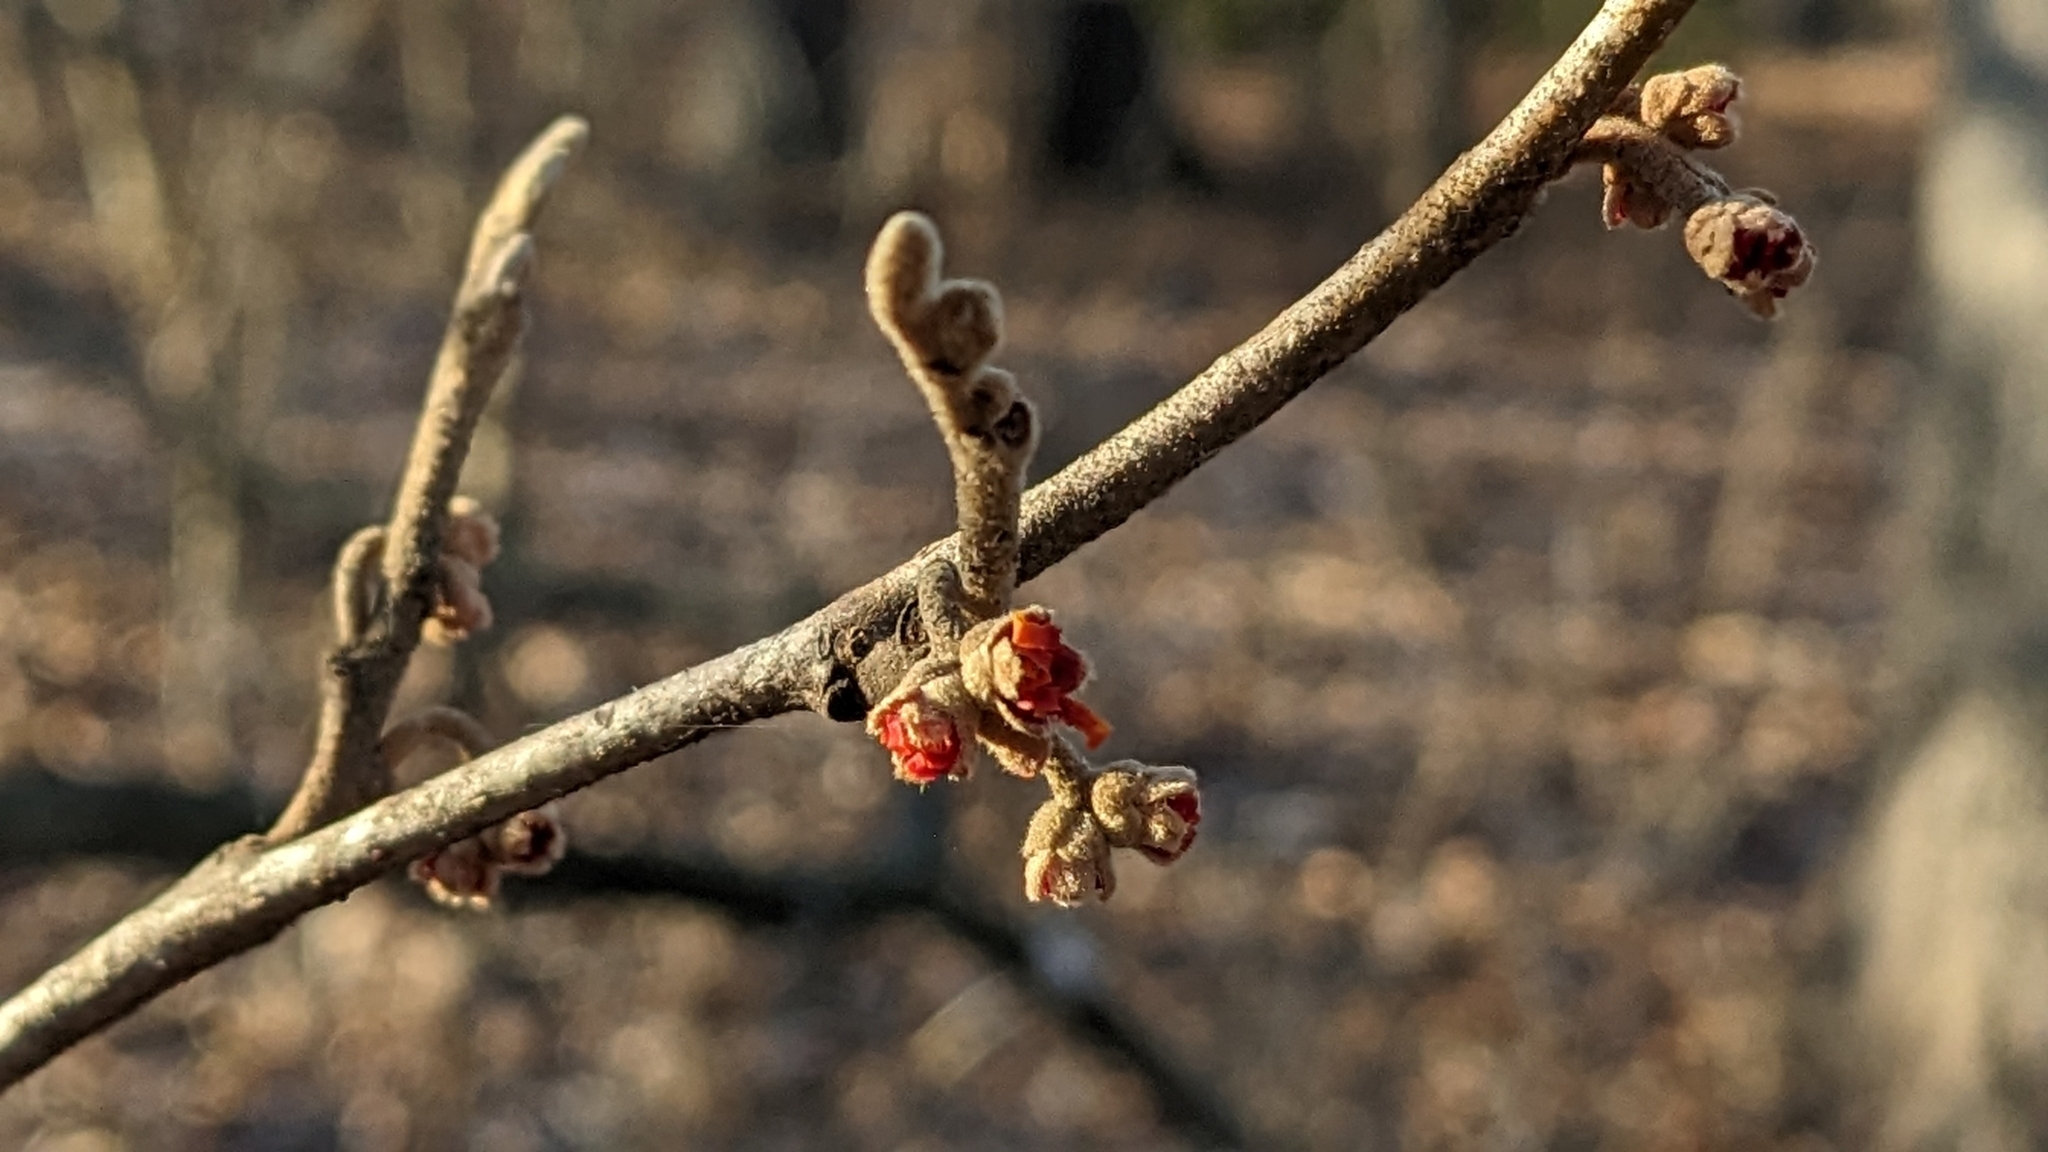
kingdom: Plantae
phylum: Tracheophyta
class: Magnoliopsida
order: Saxifragales
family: Hamamelidaceae
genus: Hamamelis
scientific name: Hamamelis vernalis
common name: Ozark witch-hazel
